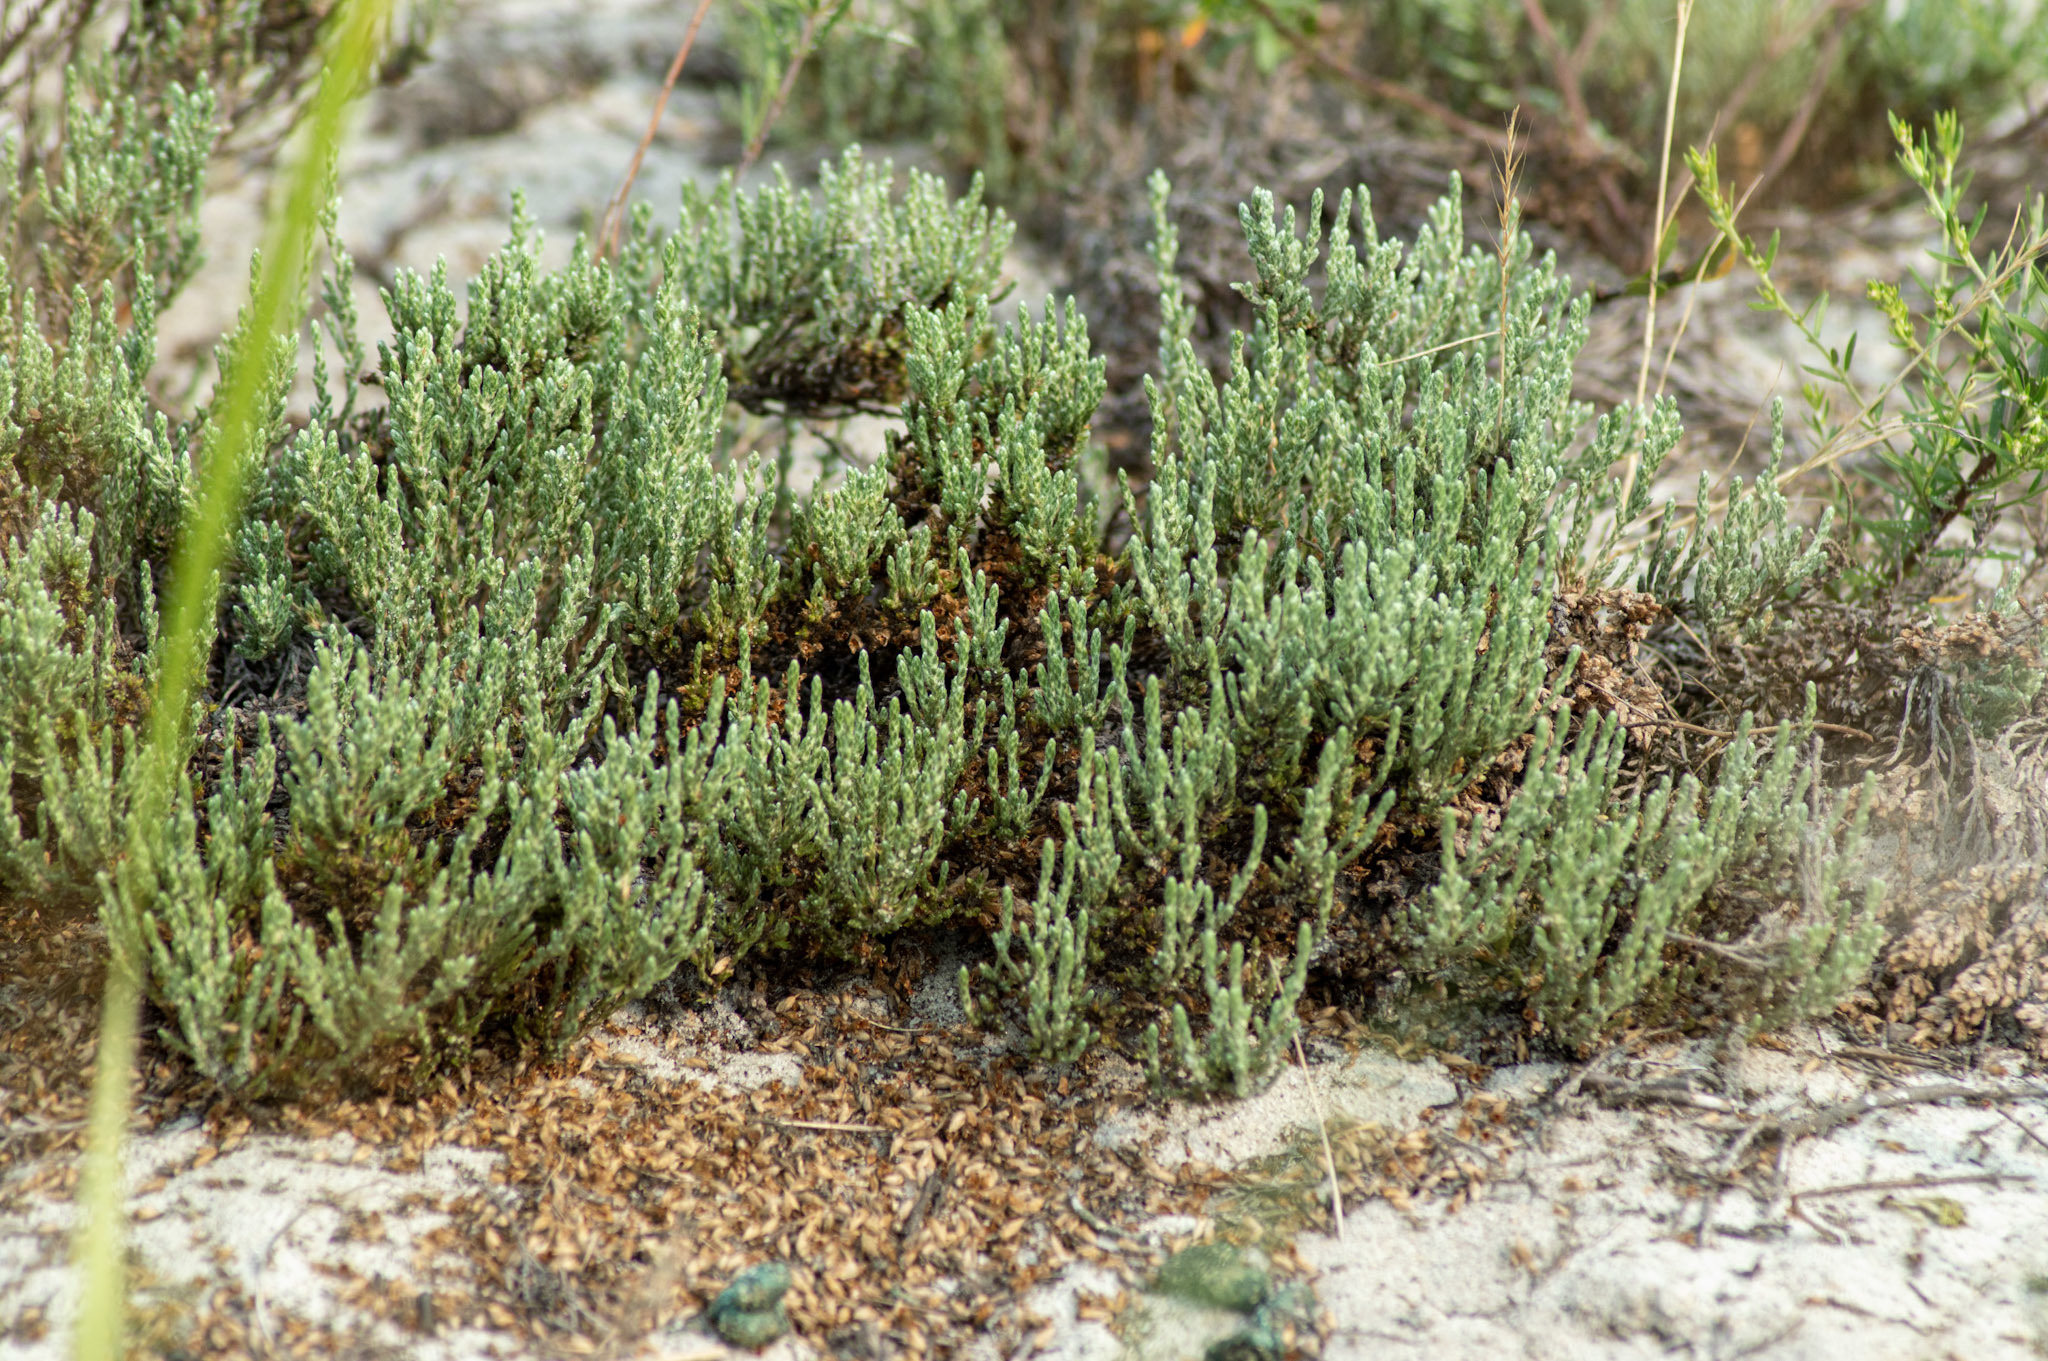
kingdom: Plantae
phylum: Tracheophyta
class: Magnoliopsida
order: Malvales
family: Cistaceae
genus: Hudsonia
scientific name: Hudsonia tomentosa
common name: Beach-heath
